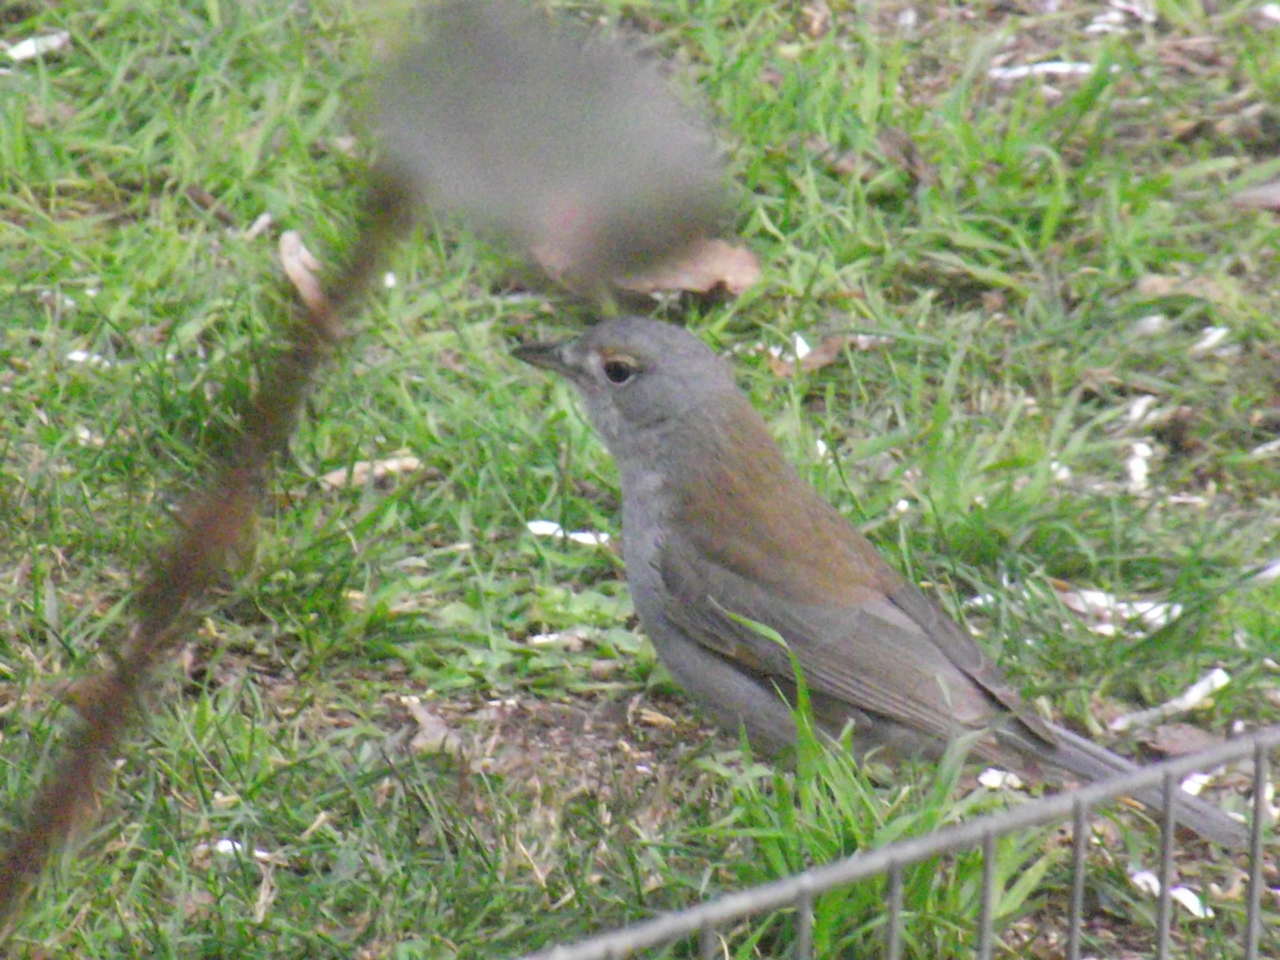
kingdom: Animalia
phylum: Chordata
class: Aves
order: Passeriformes
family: Pachycephalidae
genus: Colluricincla
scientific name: Colluricincla harmonica
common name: Grey shrikethrush
